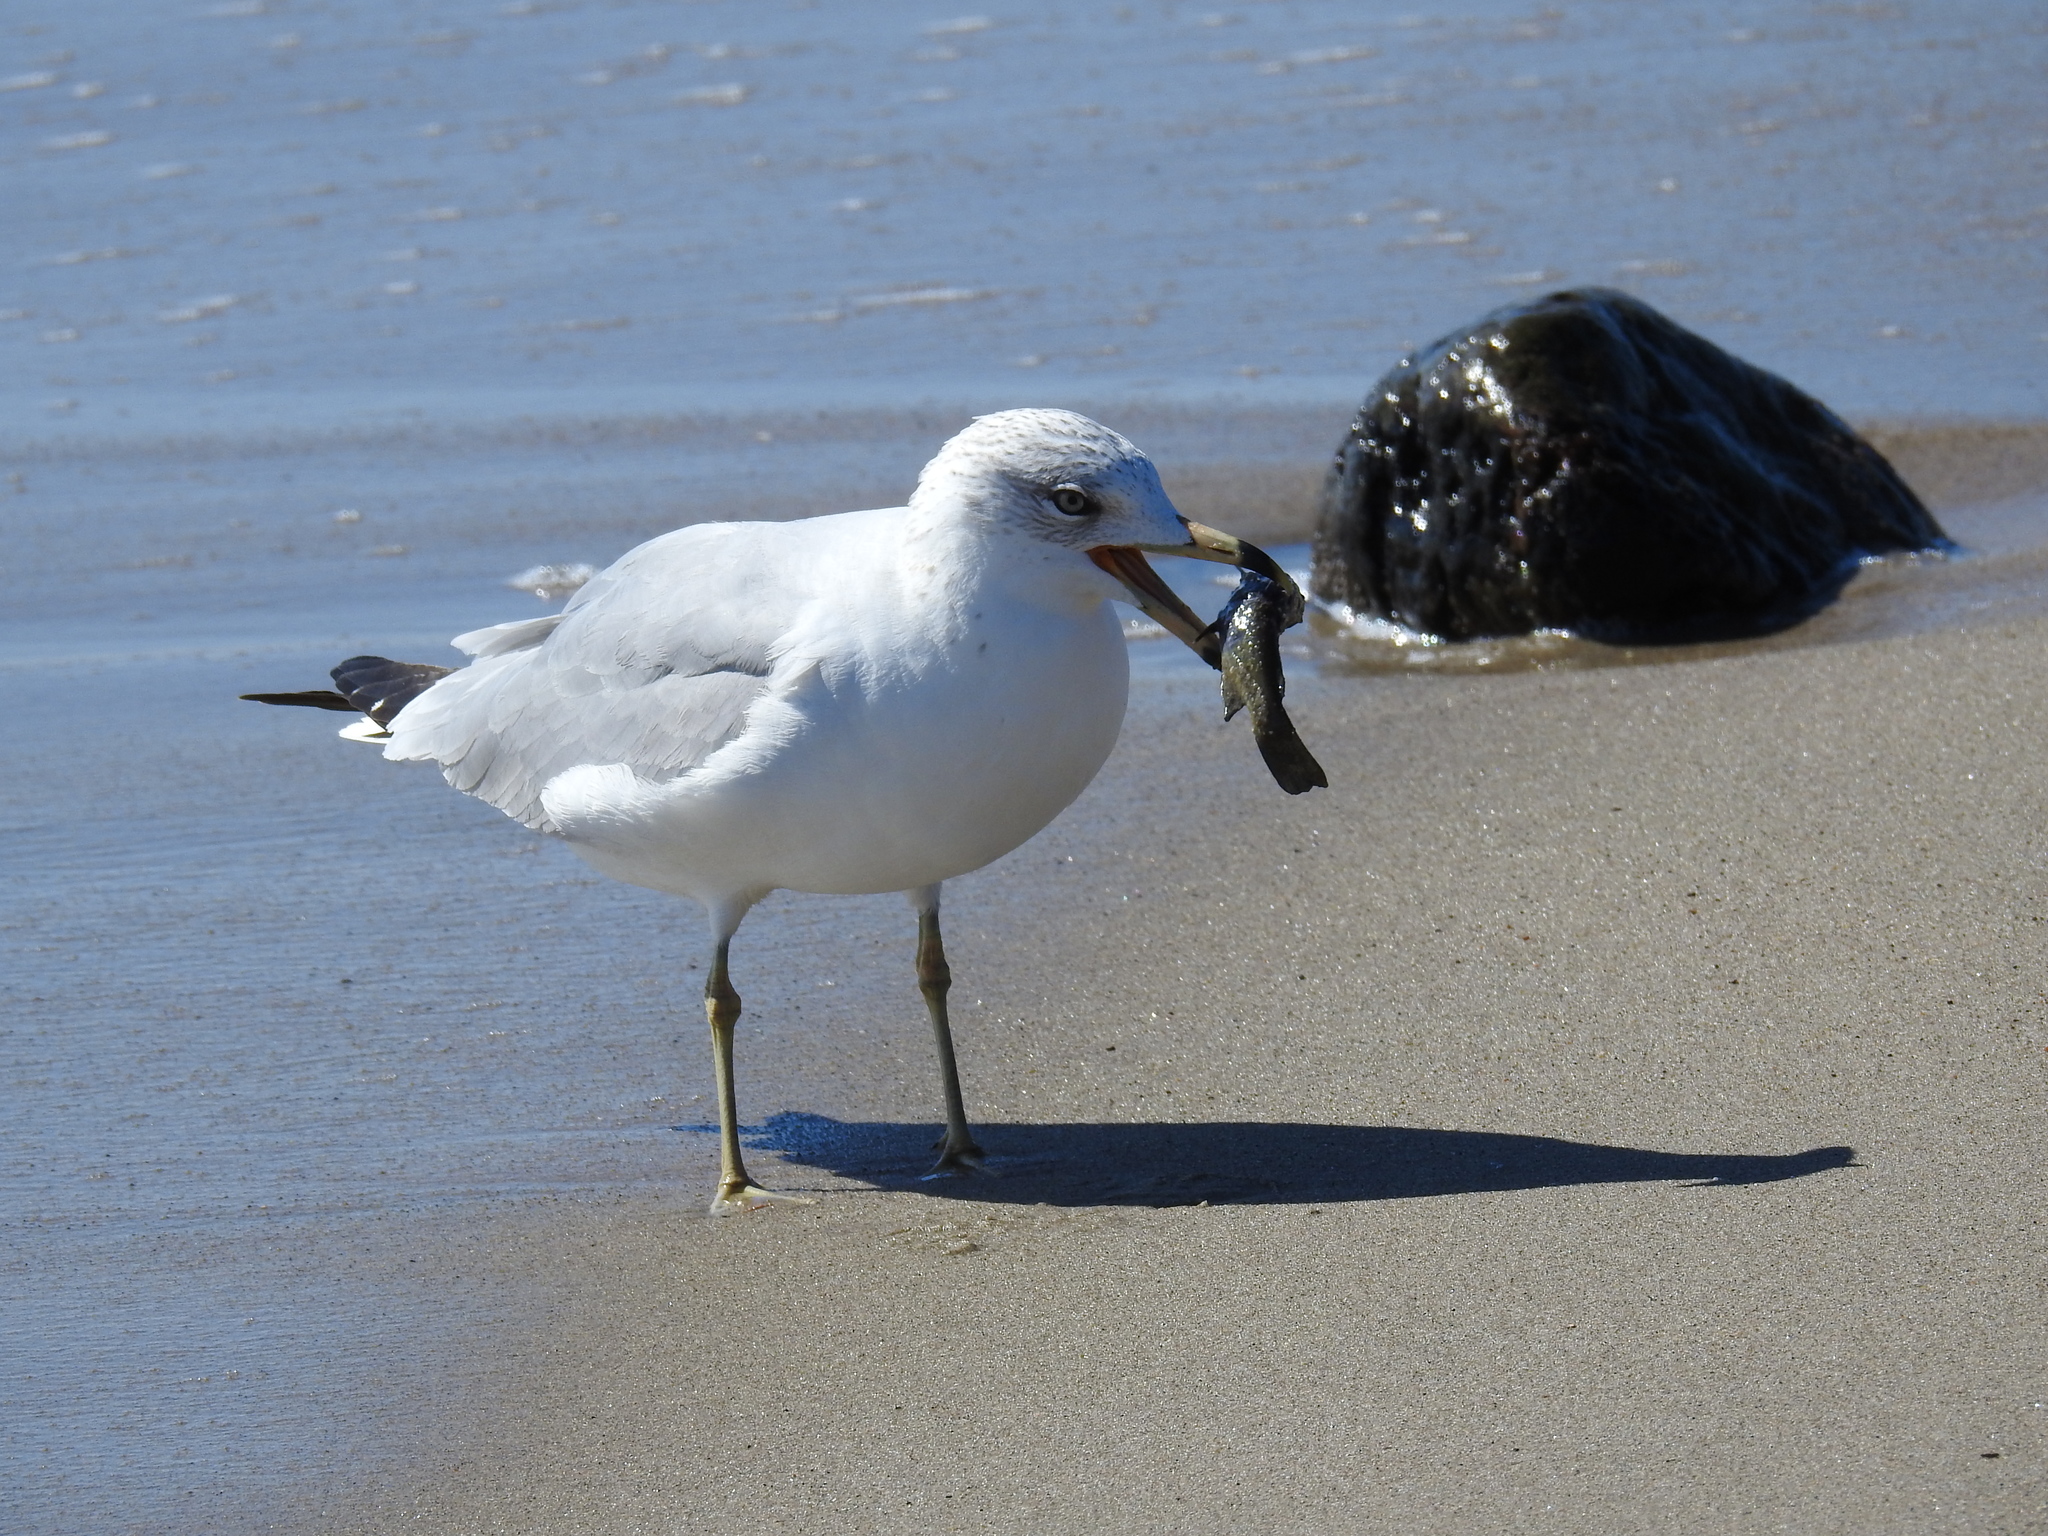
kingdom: Animalia
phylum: Chordata
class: Aves
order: Charadriiformes
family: Laridae
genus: Larus
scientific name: Larus delawarensis
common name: Ring-billed gull
